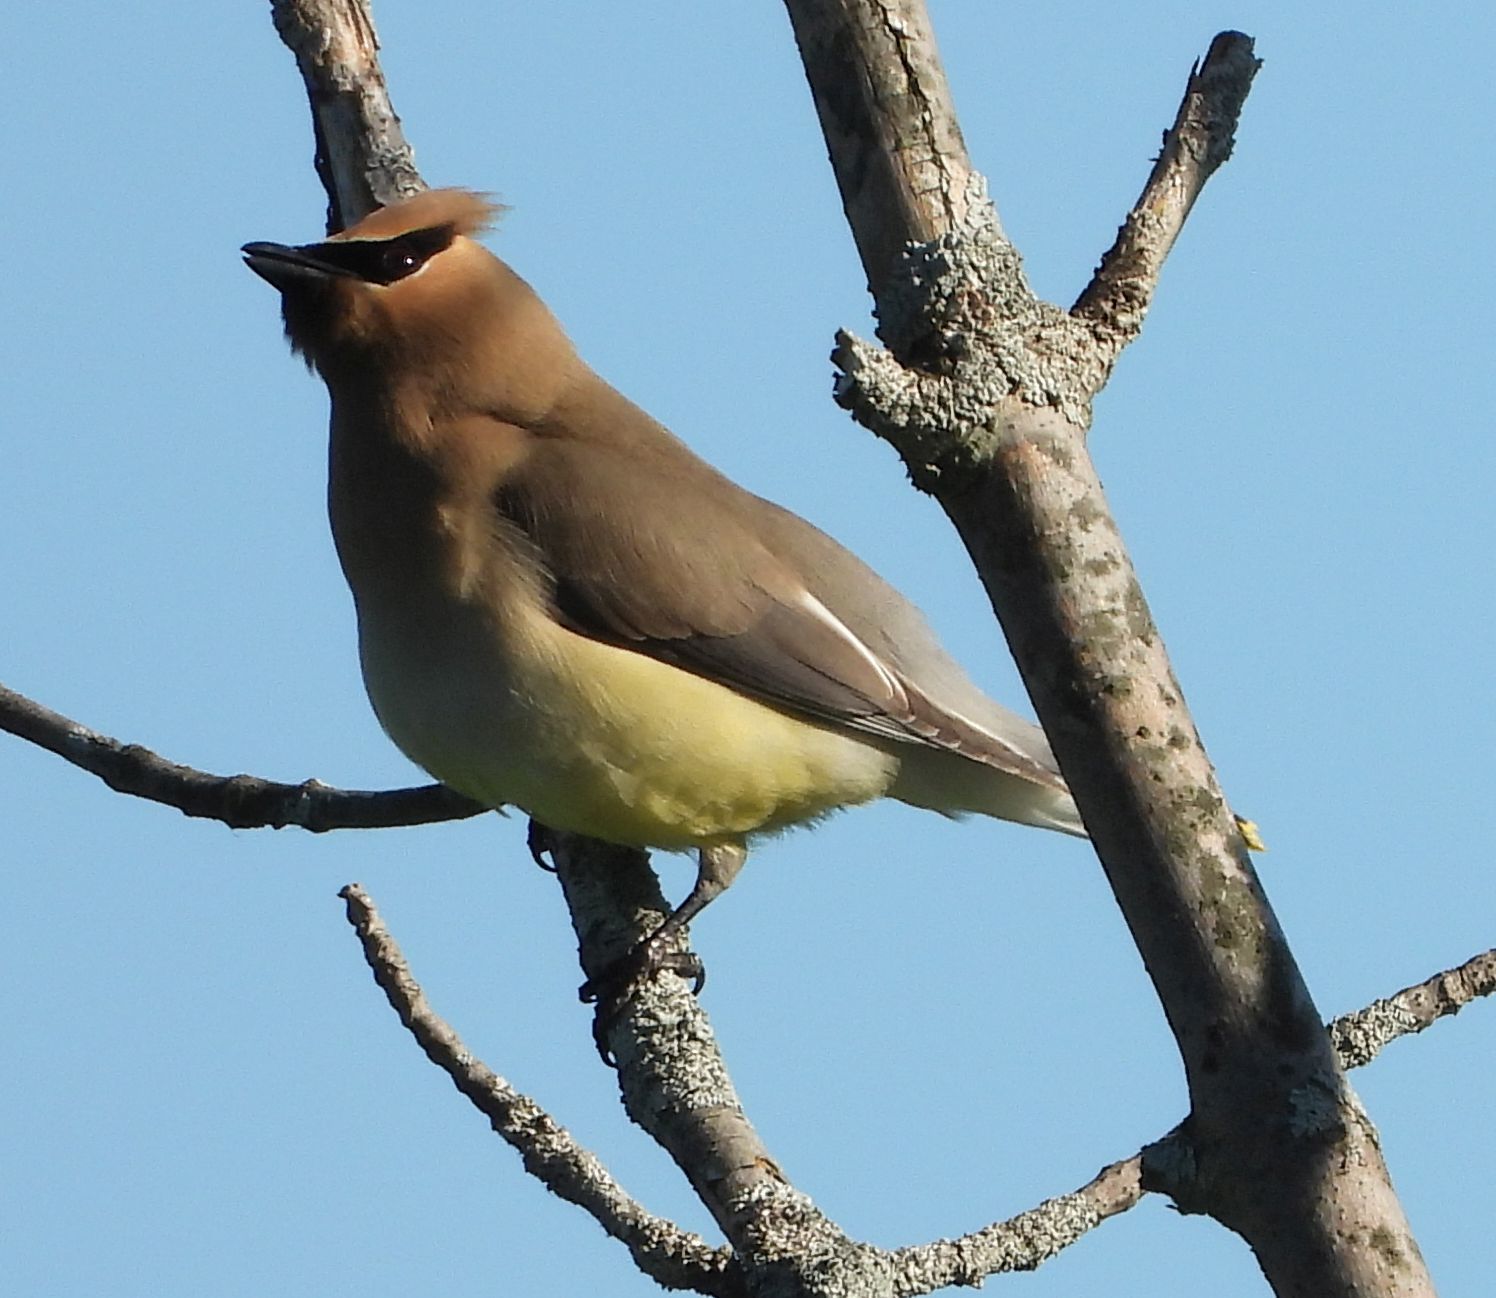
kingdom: Animalia
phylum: Chordata
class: Aves
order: Passeriformes
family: Bombycillidae
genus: Bombycilla
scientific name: Bombycilla cedrorum
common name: Cedar waxwing
